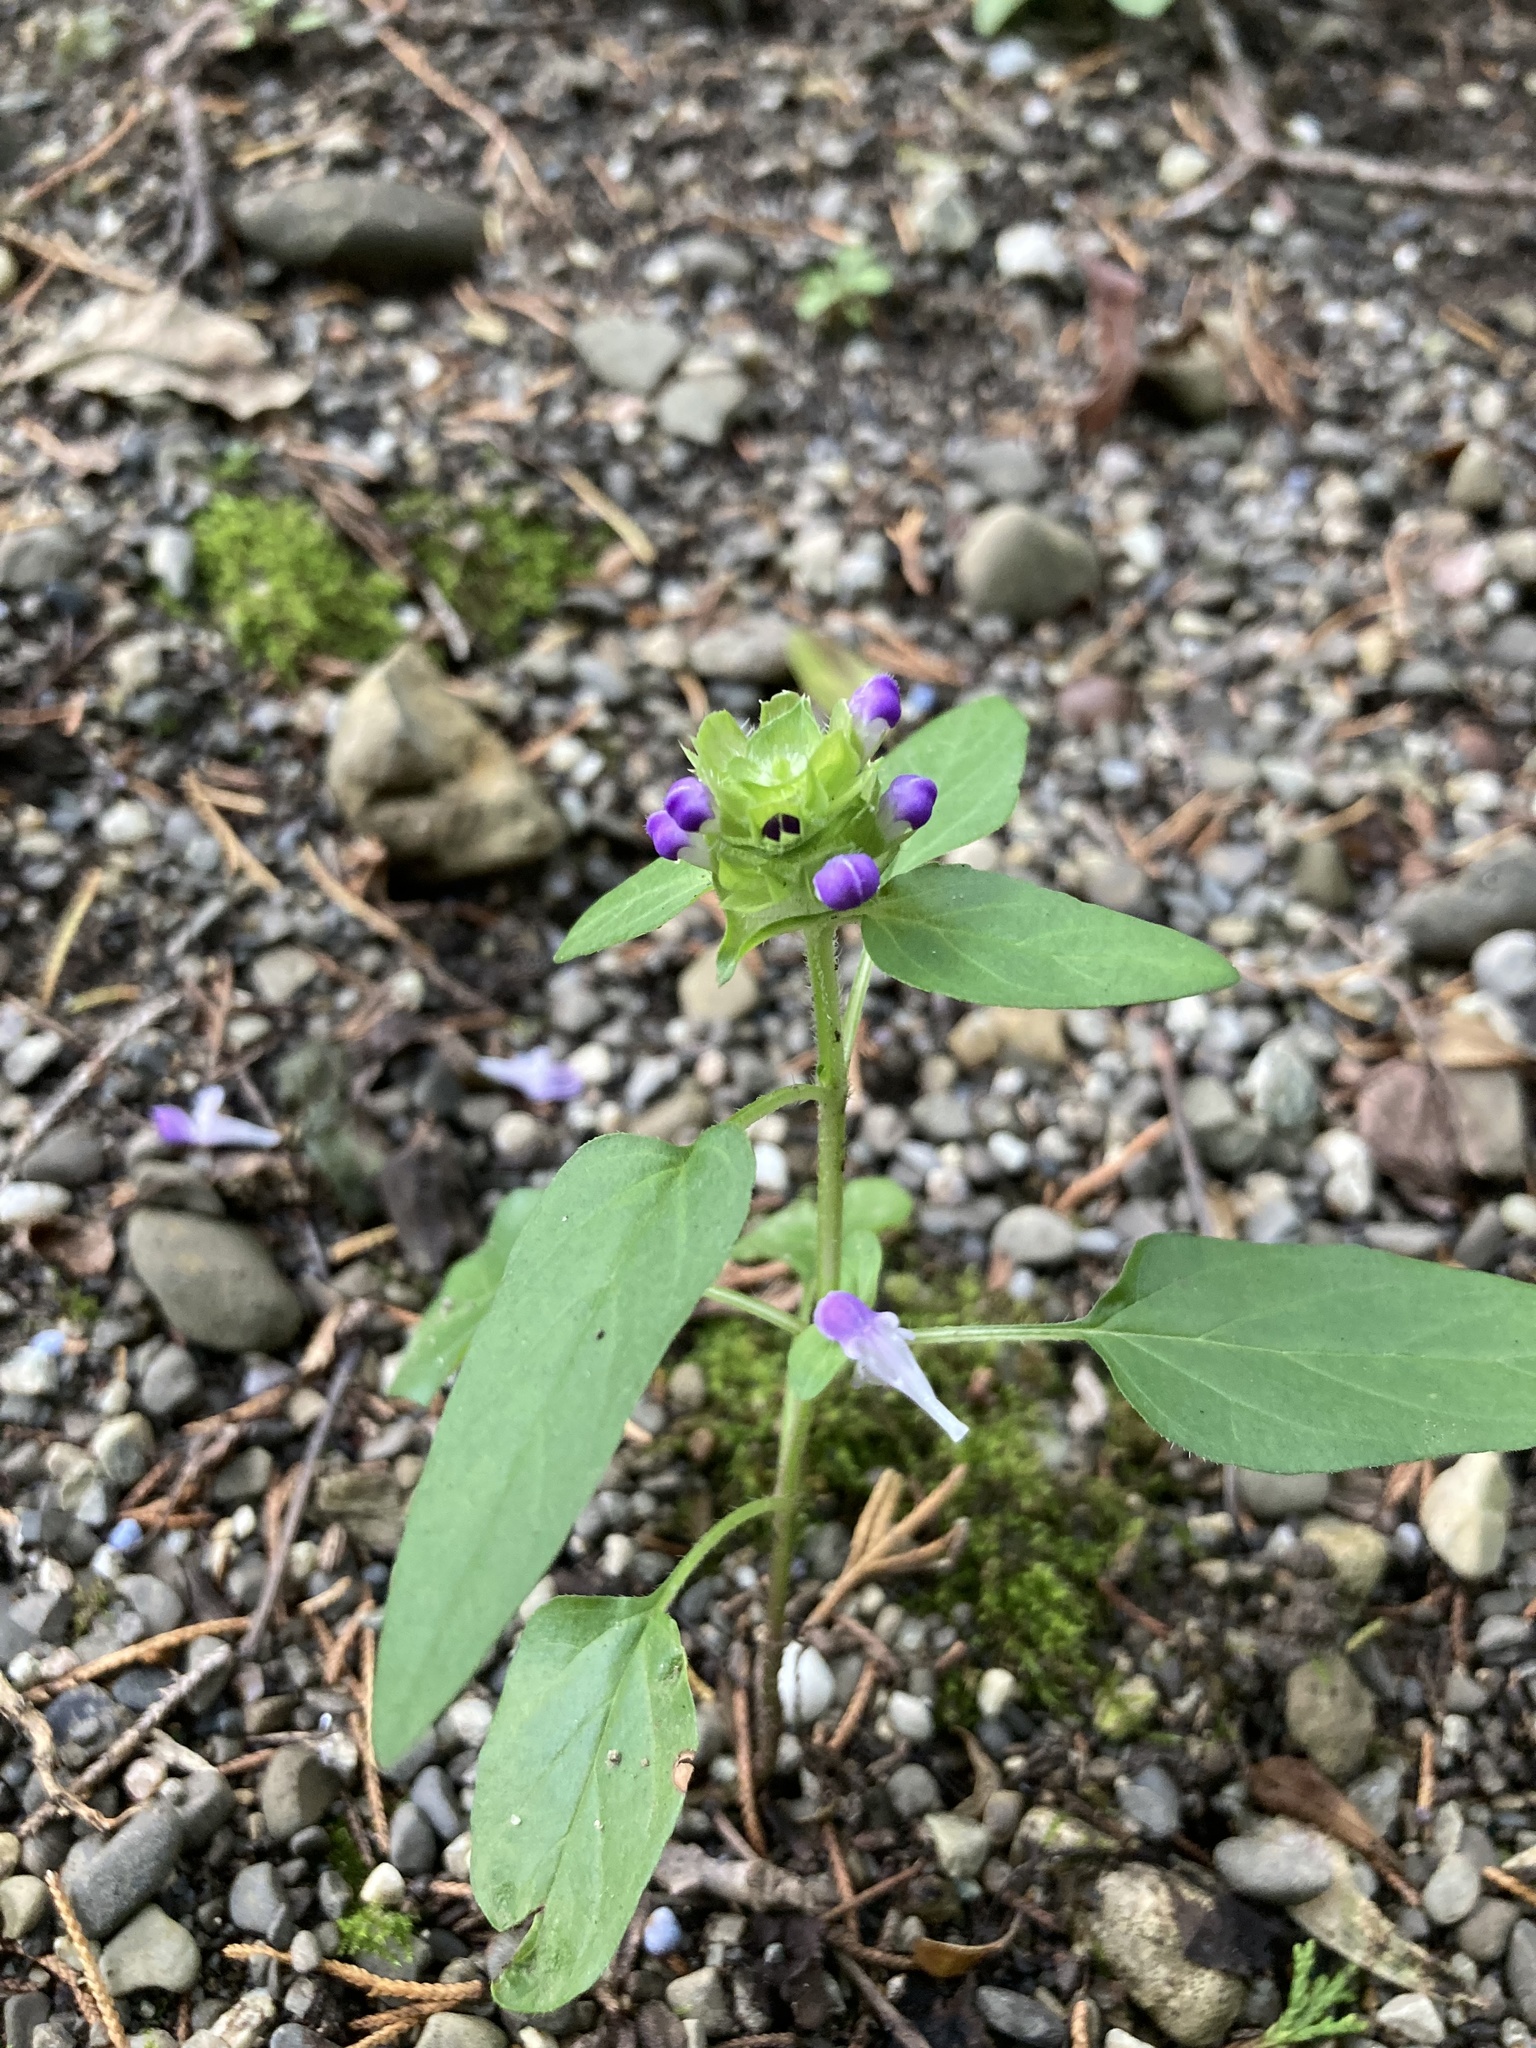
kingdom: Plantae
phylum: Tracheophyta
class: Magnoliopsida
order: Lamiales
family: Lamiaceae
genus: Prunella
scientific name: Prunella vulgaris
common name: Heal-all
